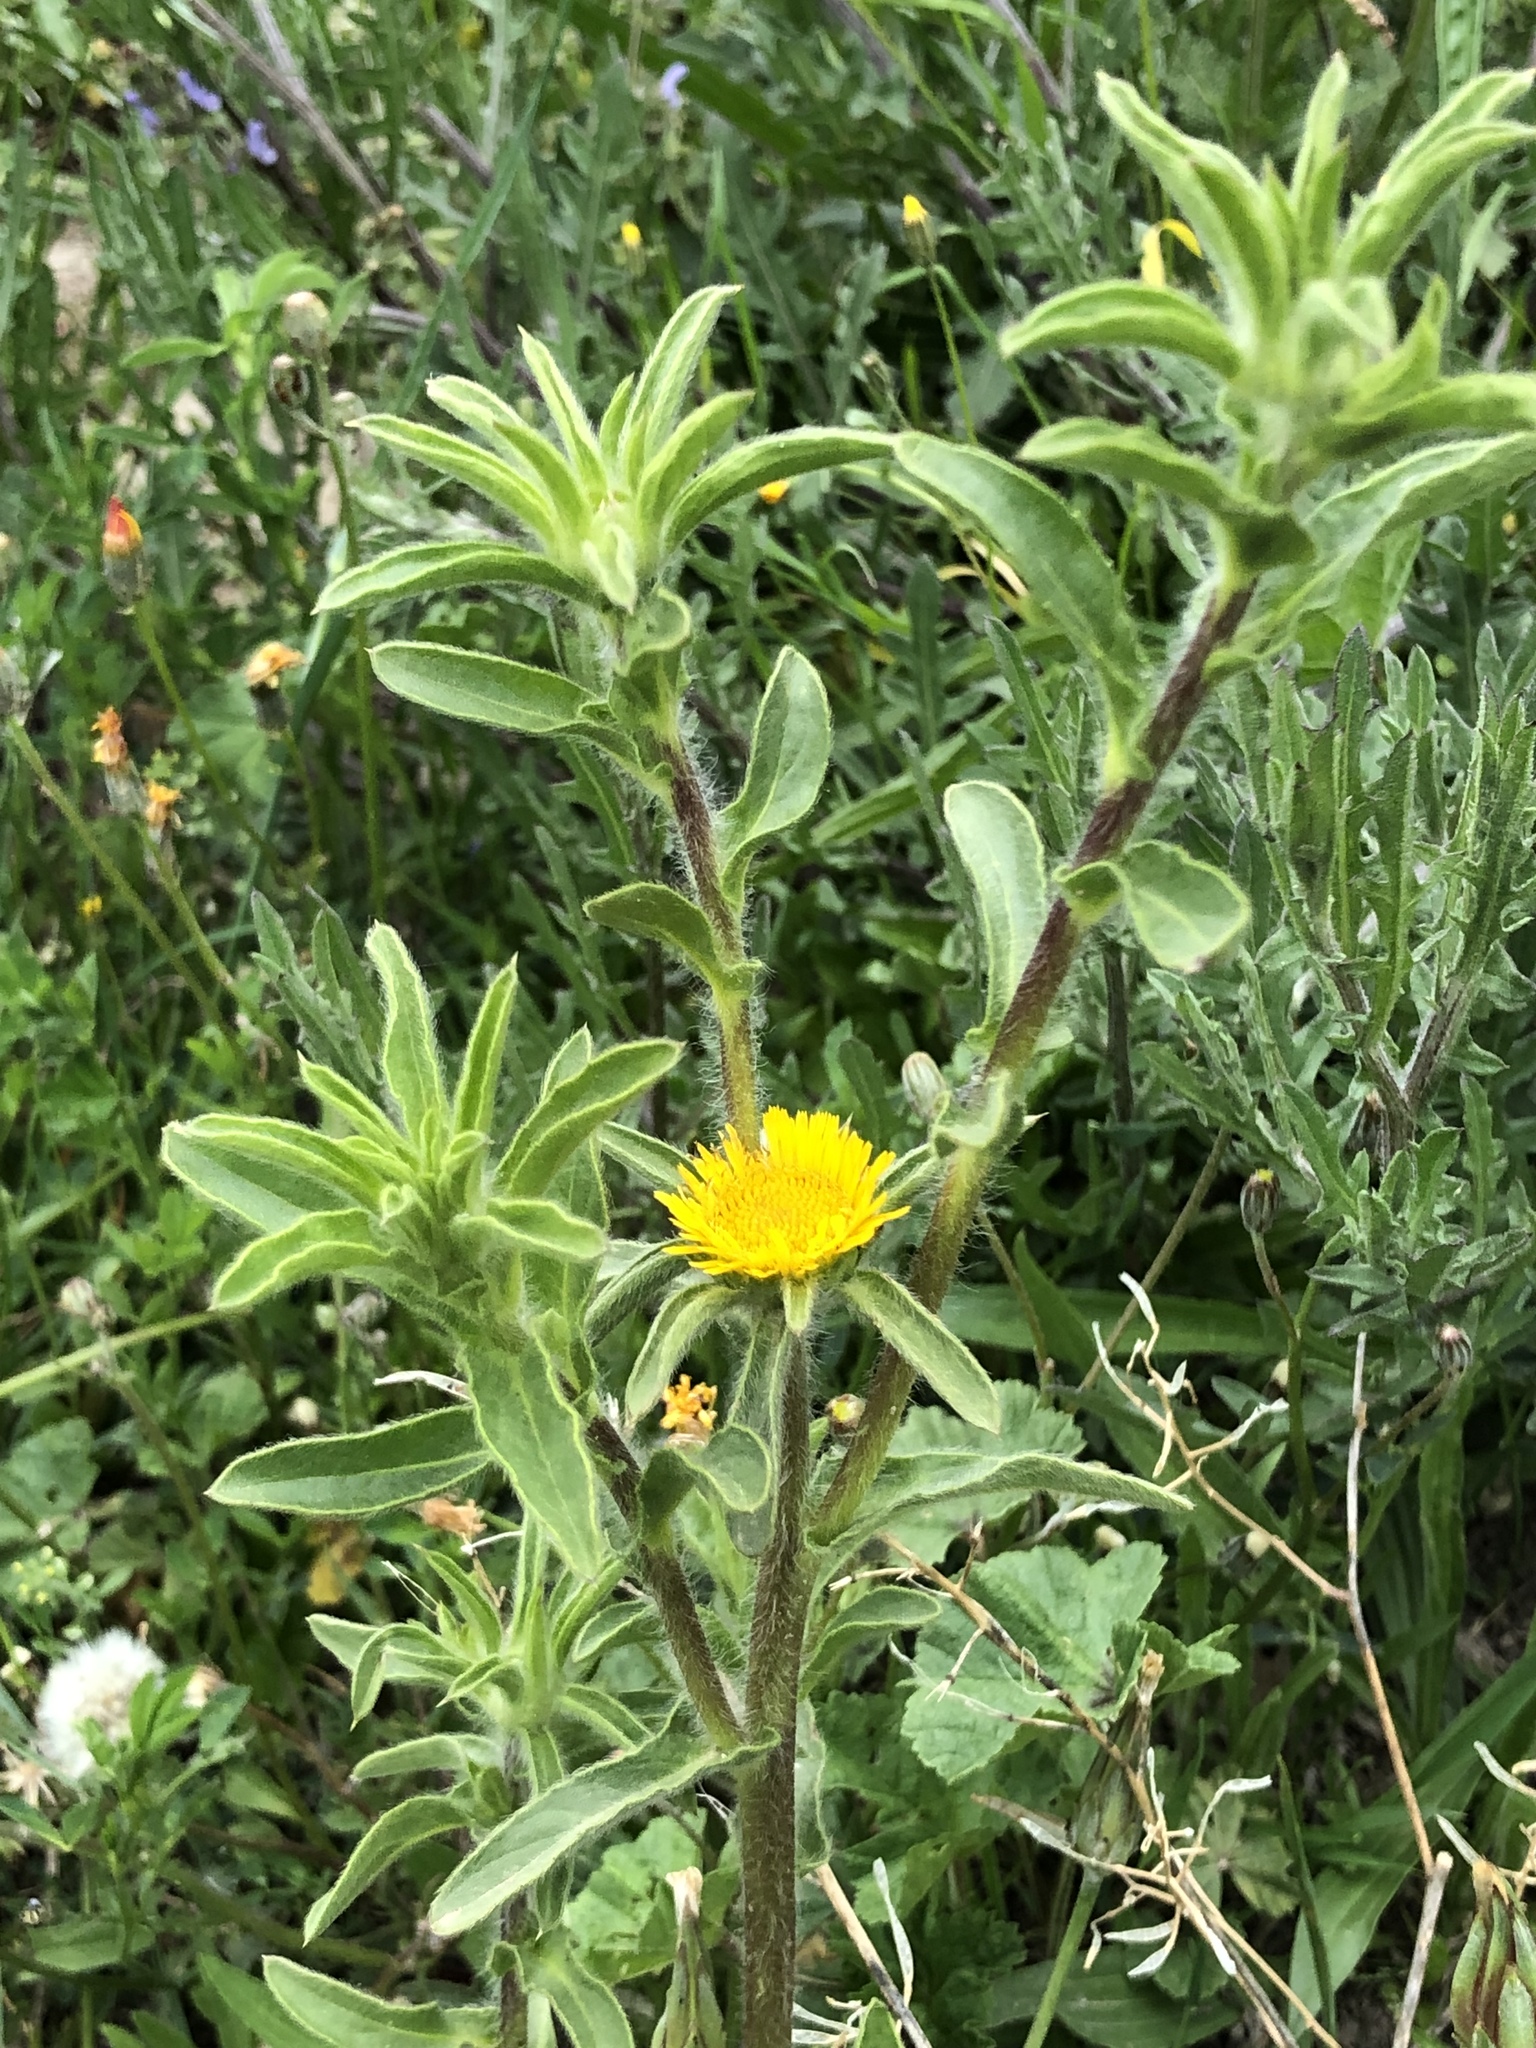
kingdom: Plantae
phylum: Tracheophyta
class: Magnoliopsida
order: Asterales
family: Asteraceae
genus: Pallenis
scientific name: Pallenis spinosa
